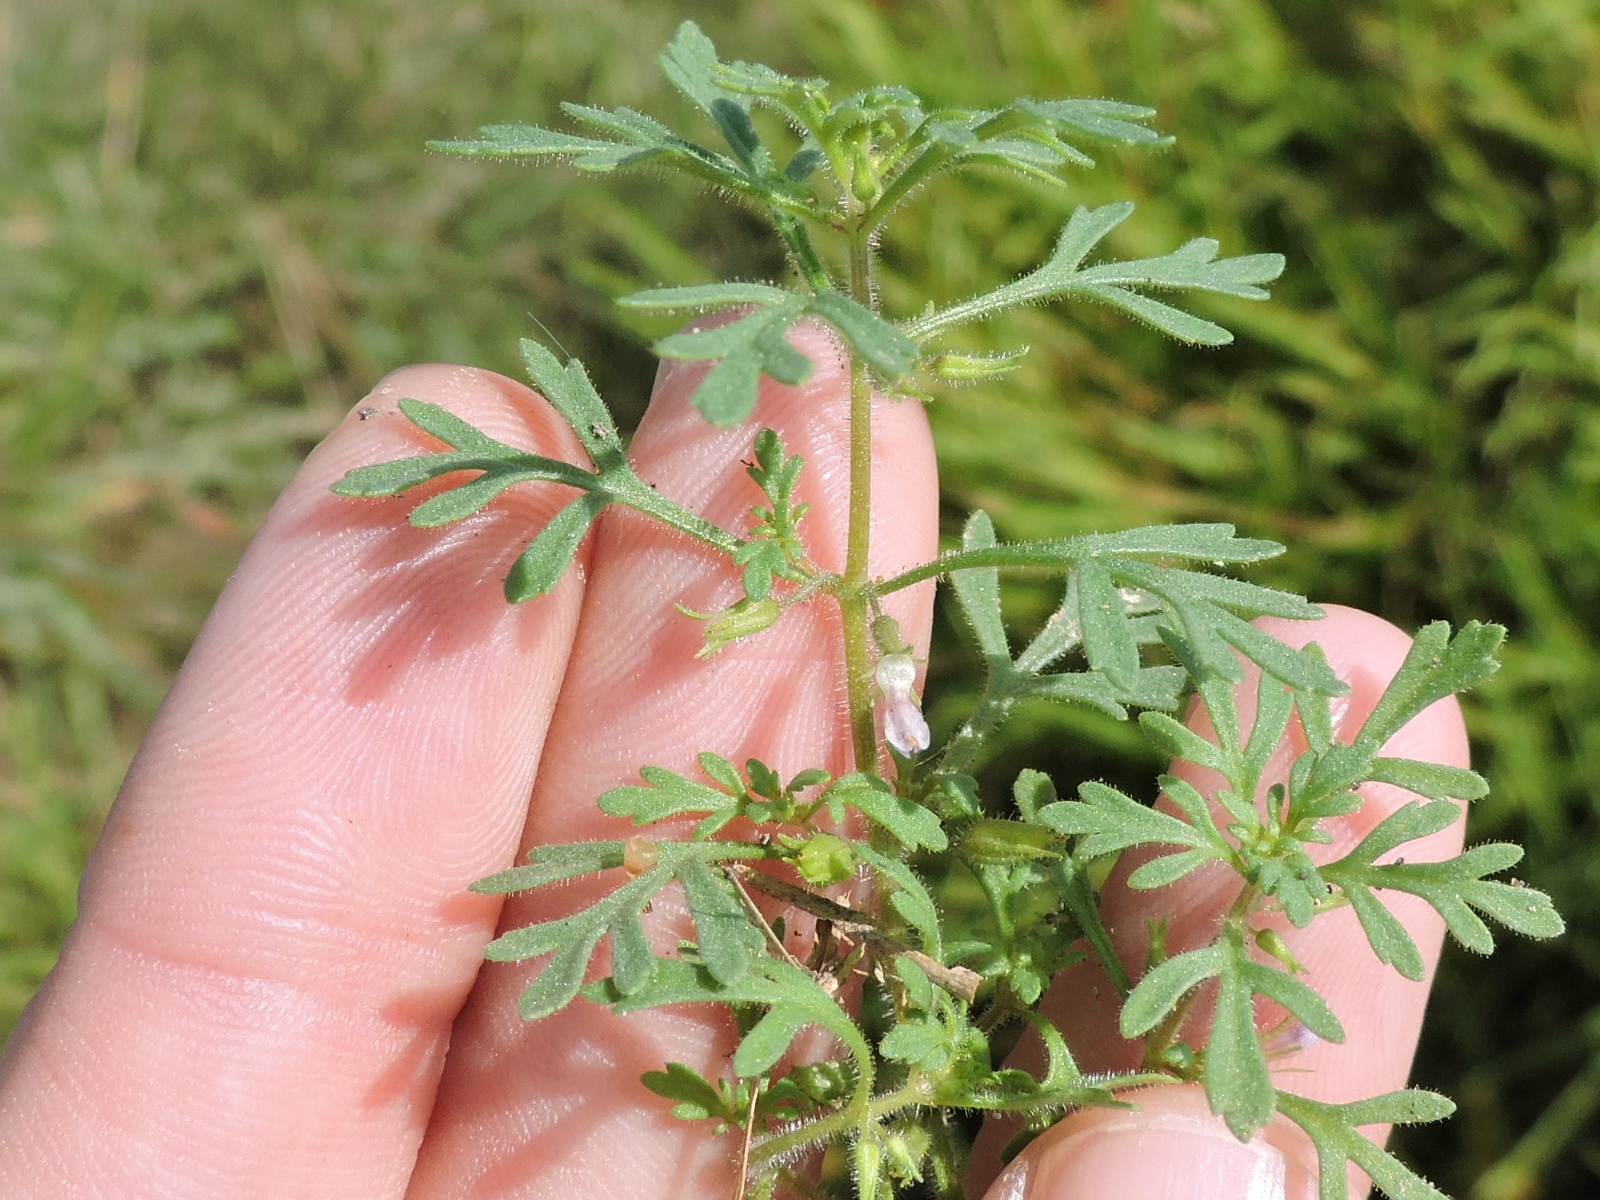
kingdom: Plantae
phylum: Tracheophyta
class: Magnoliopsida
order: Lamiales
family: Plantaginaceae
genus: Leucospora
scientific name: Leucospora multifida
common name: Narrow-leaf paleseed
